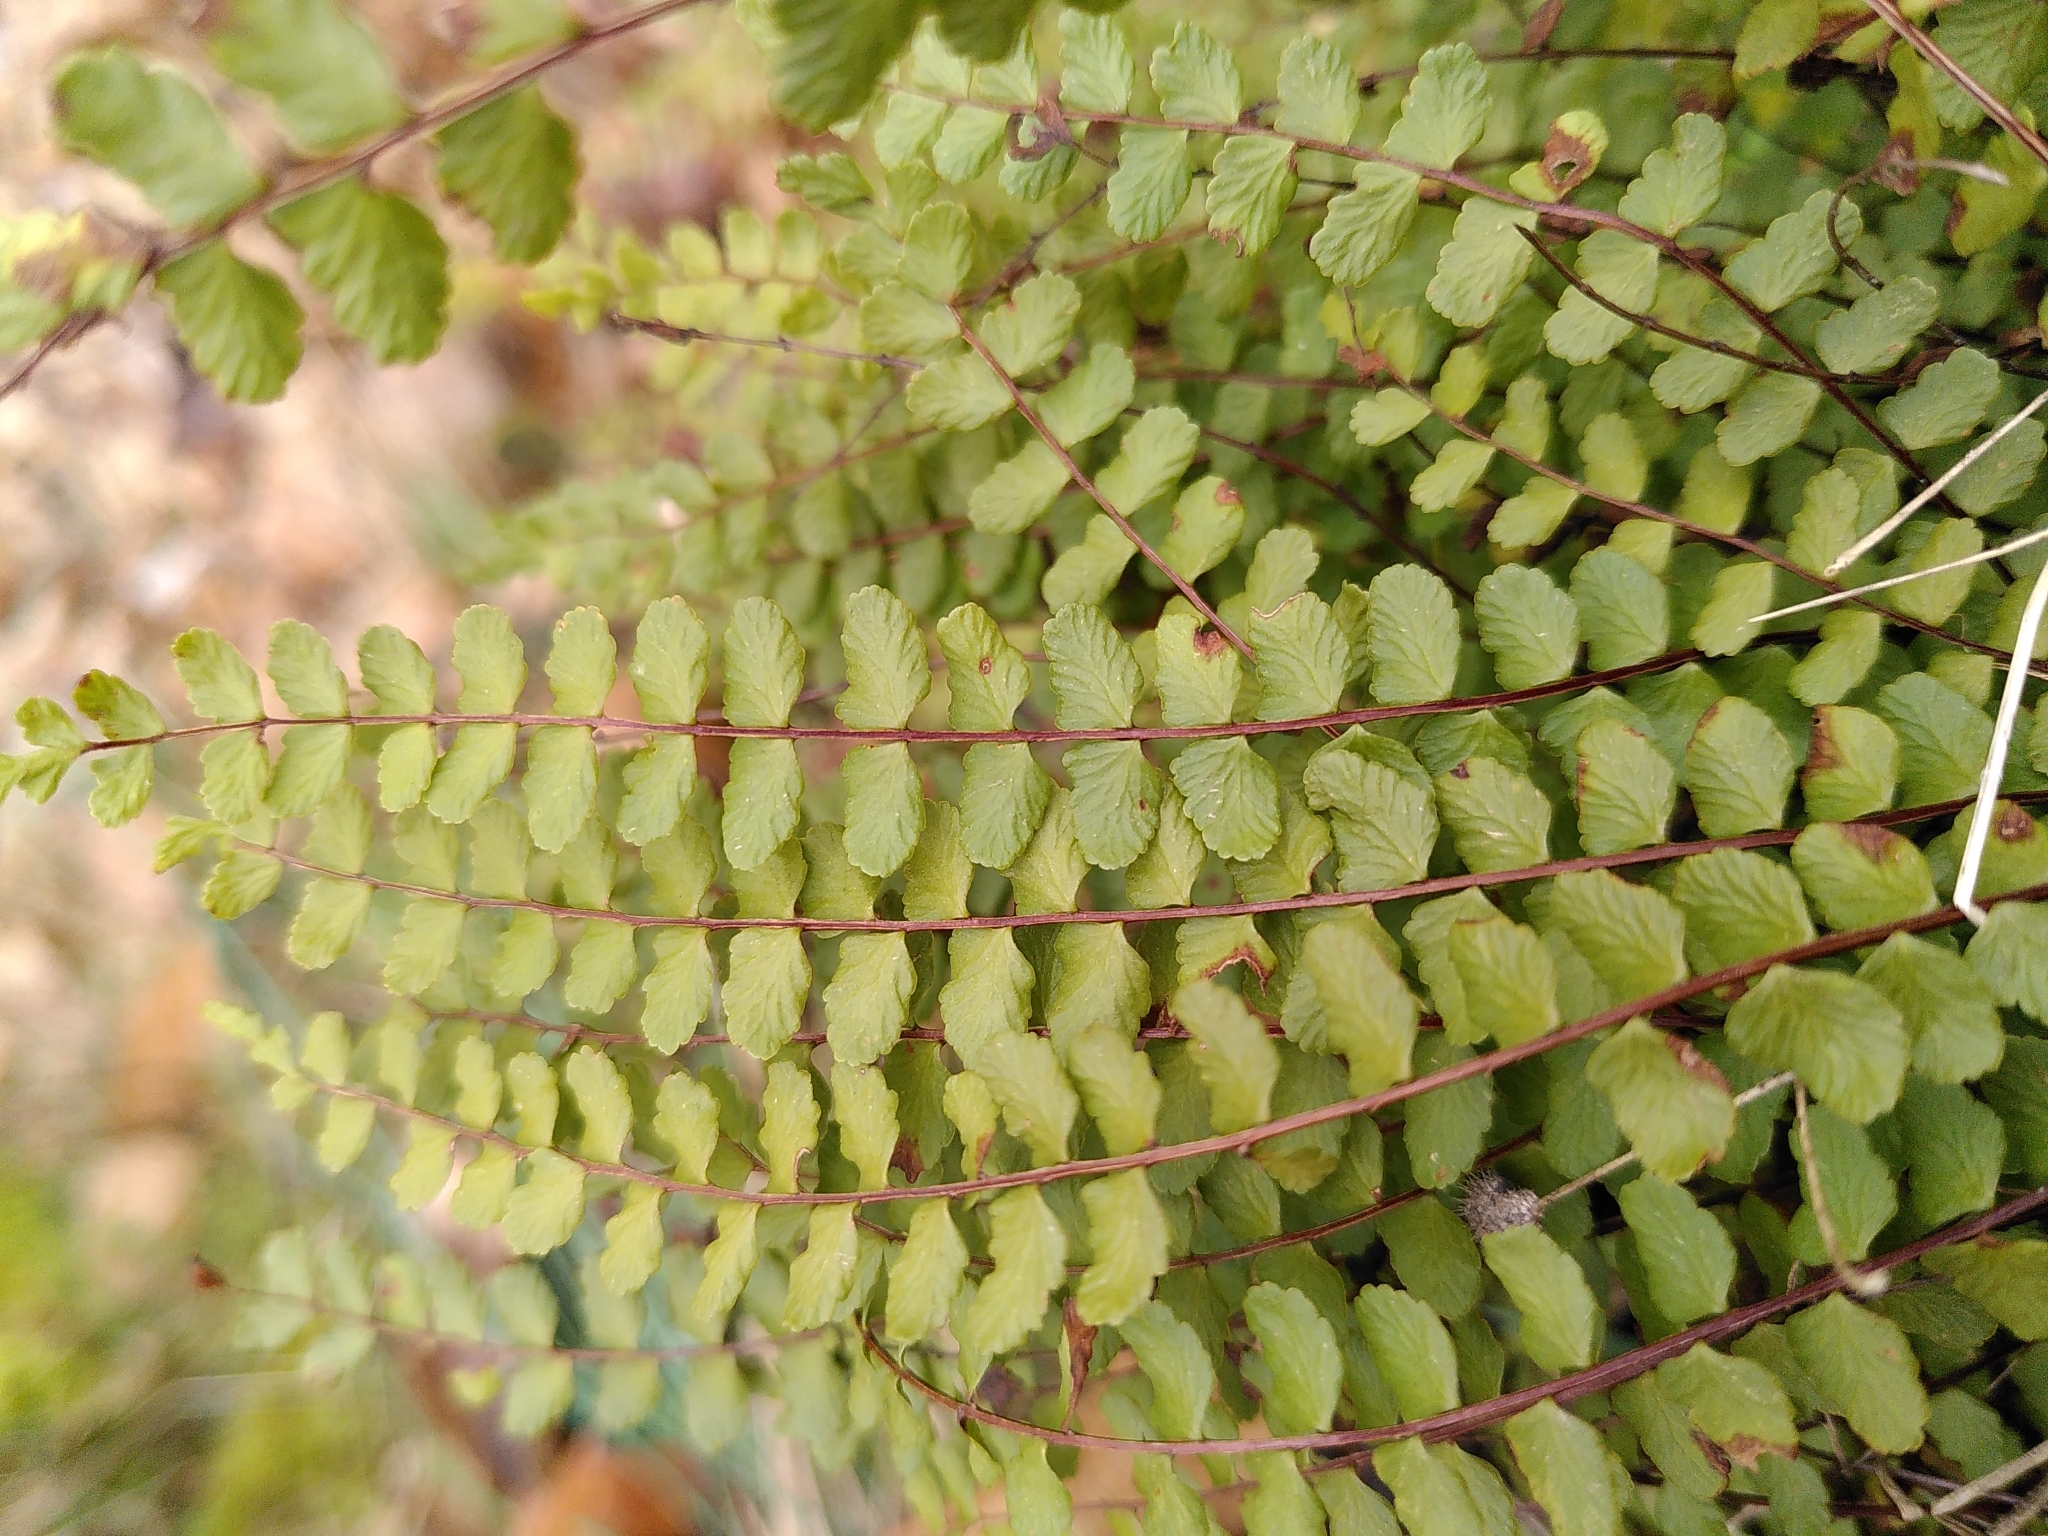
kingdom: Plantae
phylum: Tracheophyta
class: Polypodiopsida
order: Polypodiales
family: Aspleniaceae
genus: Asplenium
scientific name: Asplenium trichomanes
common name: Maidenhair spleenwort
